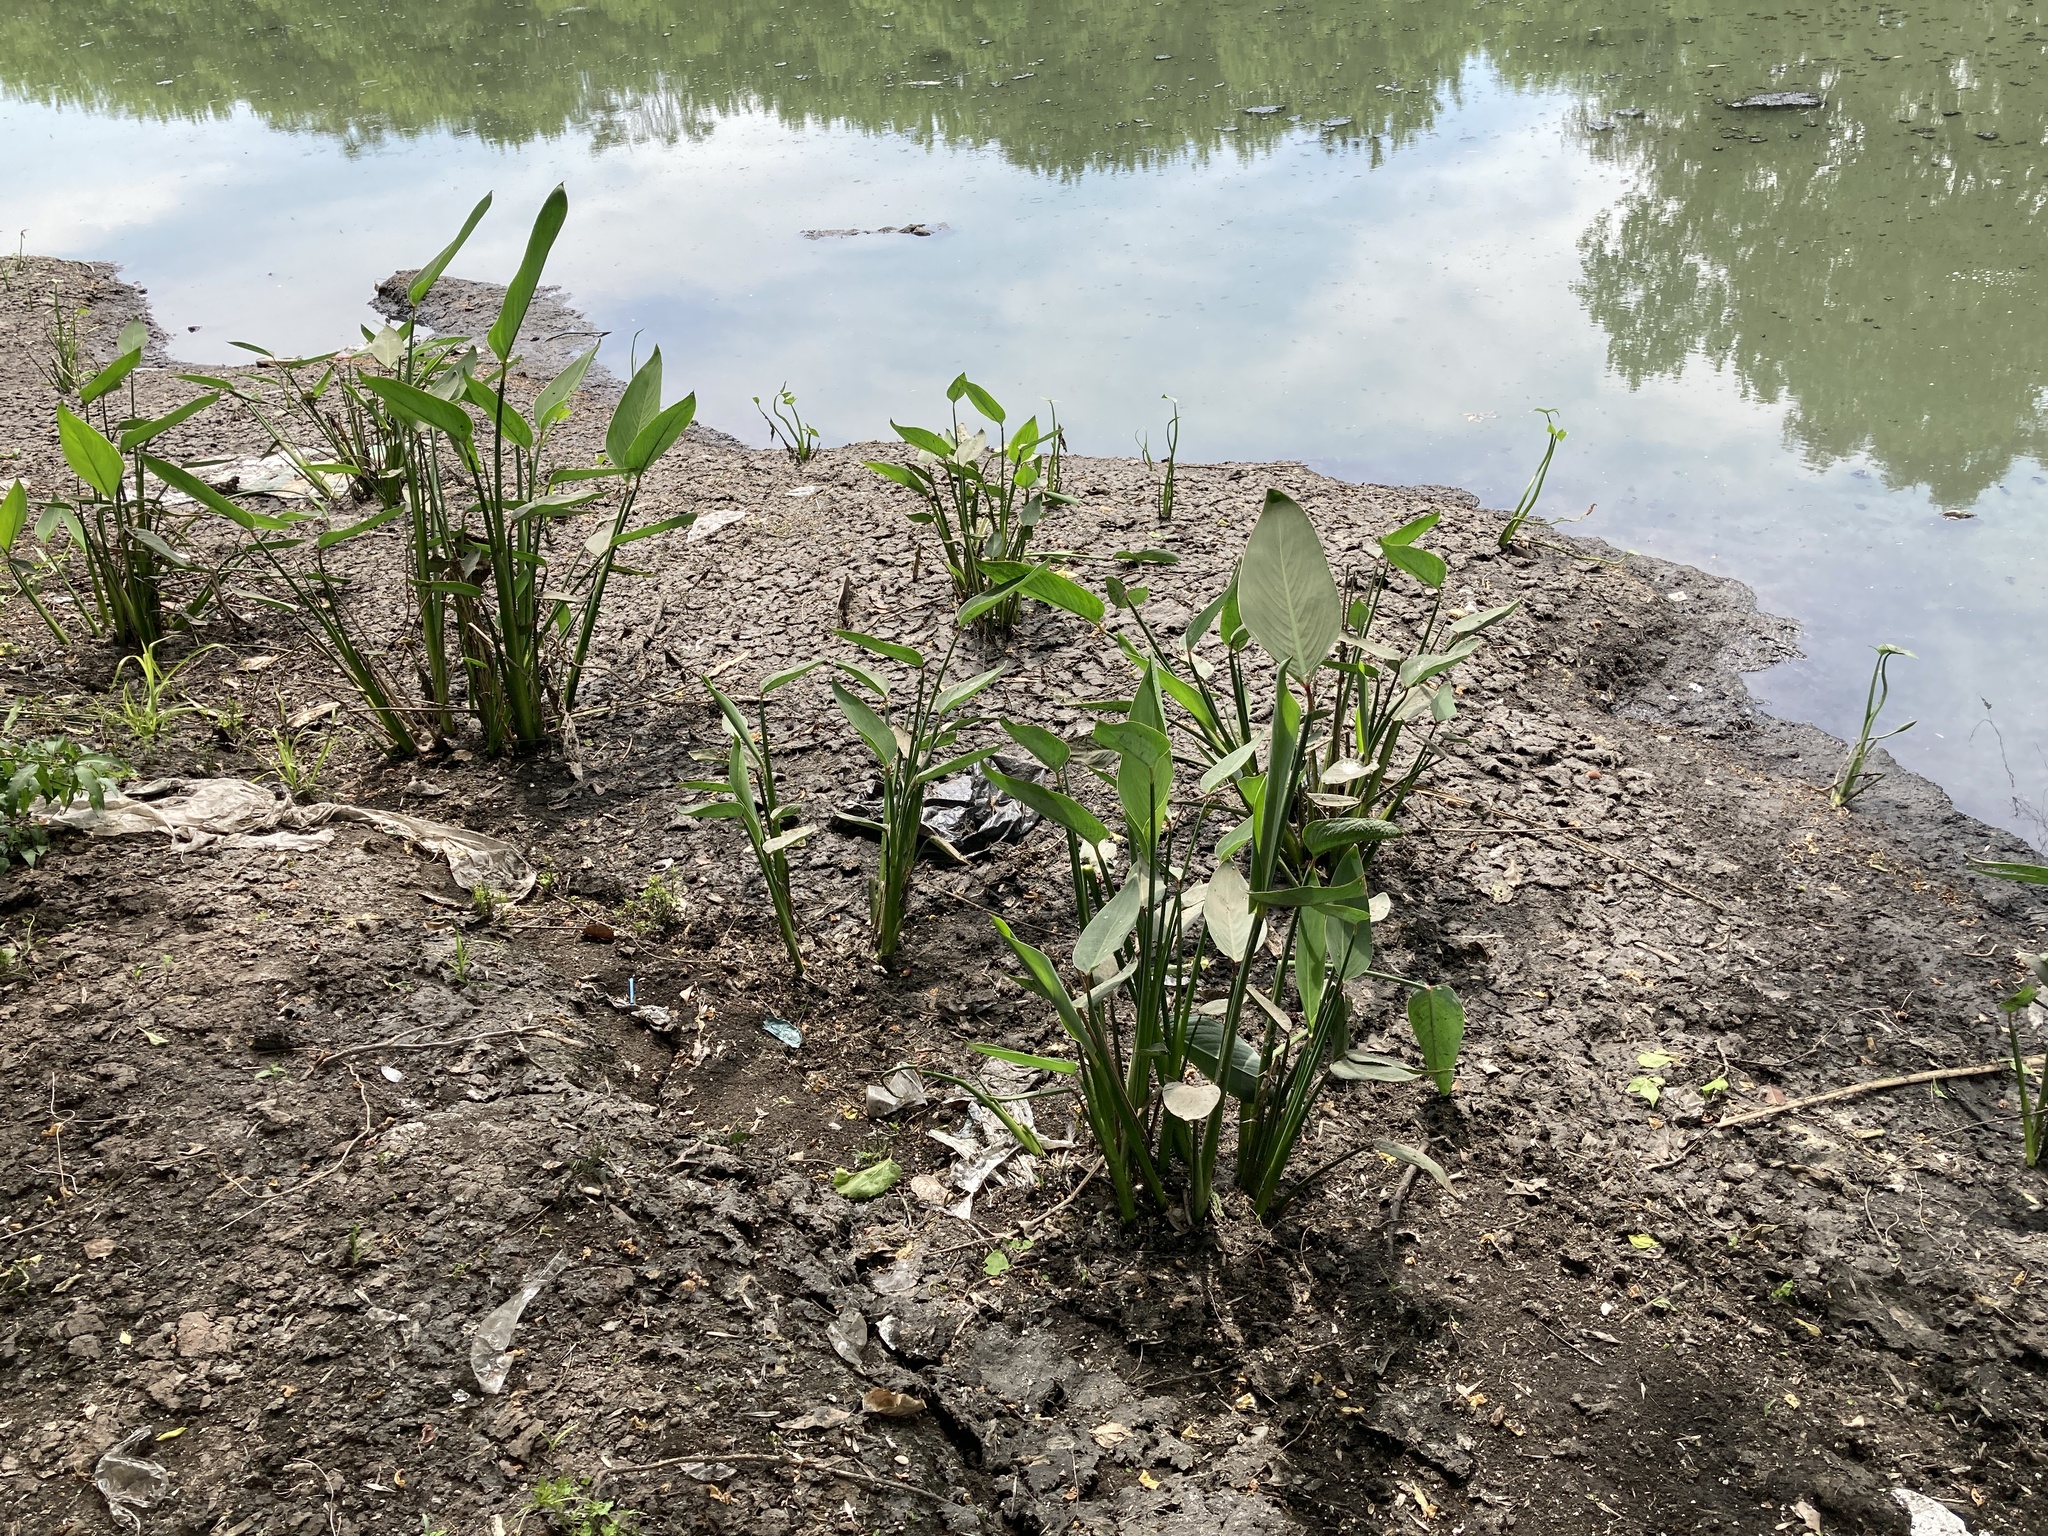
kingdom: Plantae
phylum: Tracheophyta
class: Liliopsida
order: Zingiberales
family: Marantaceae
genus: Thalia
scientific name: Thalia multiflora
